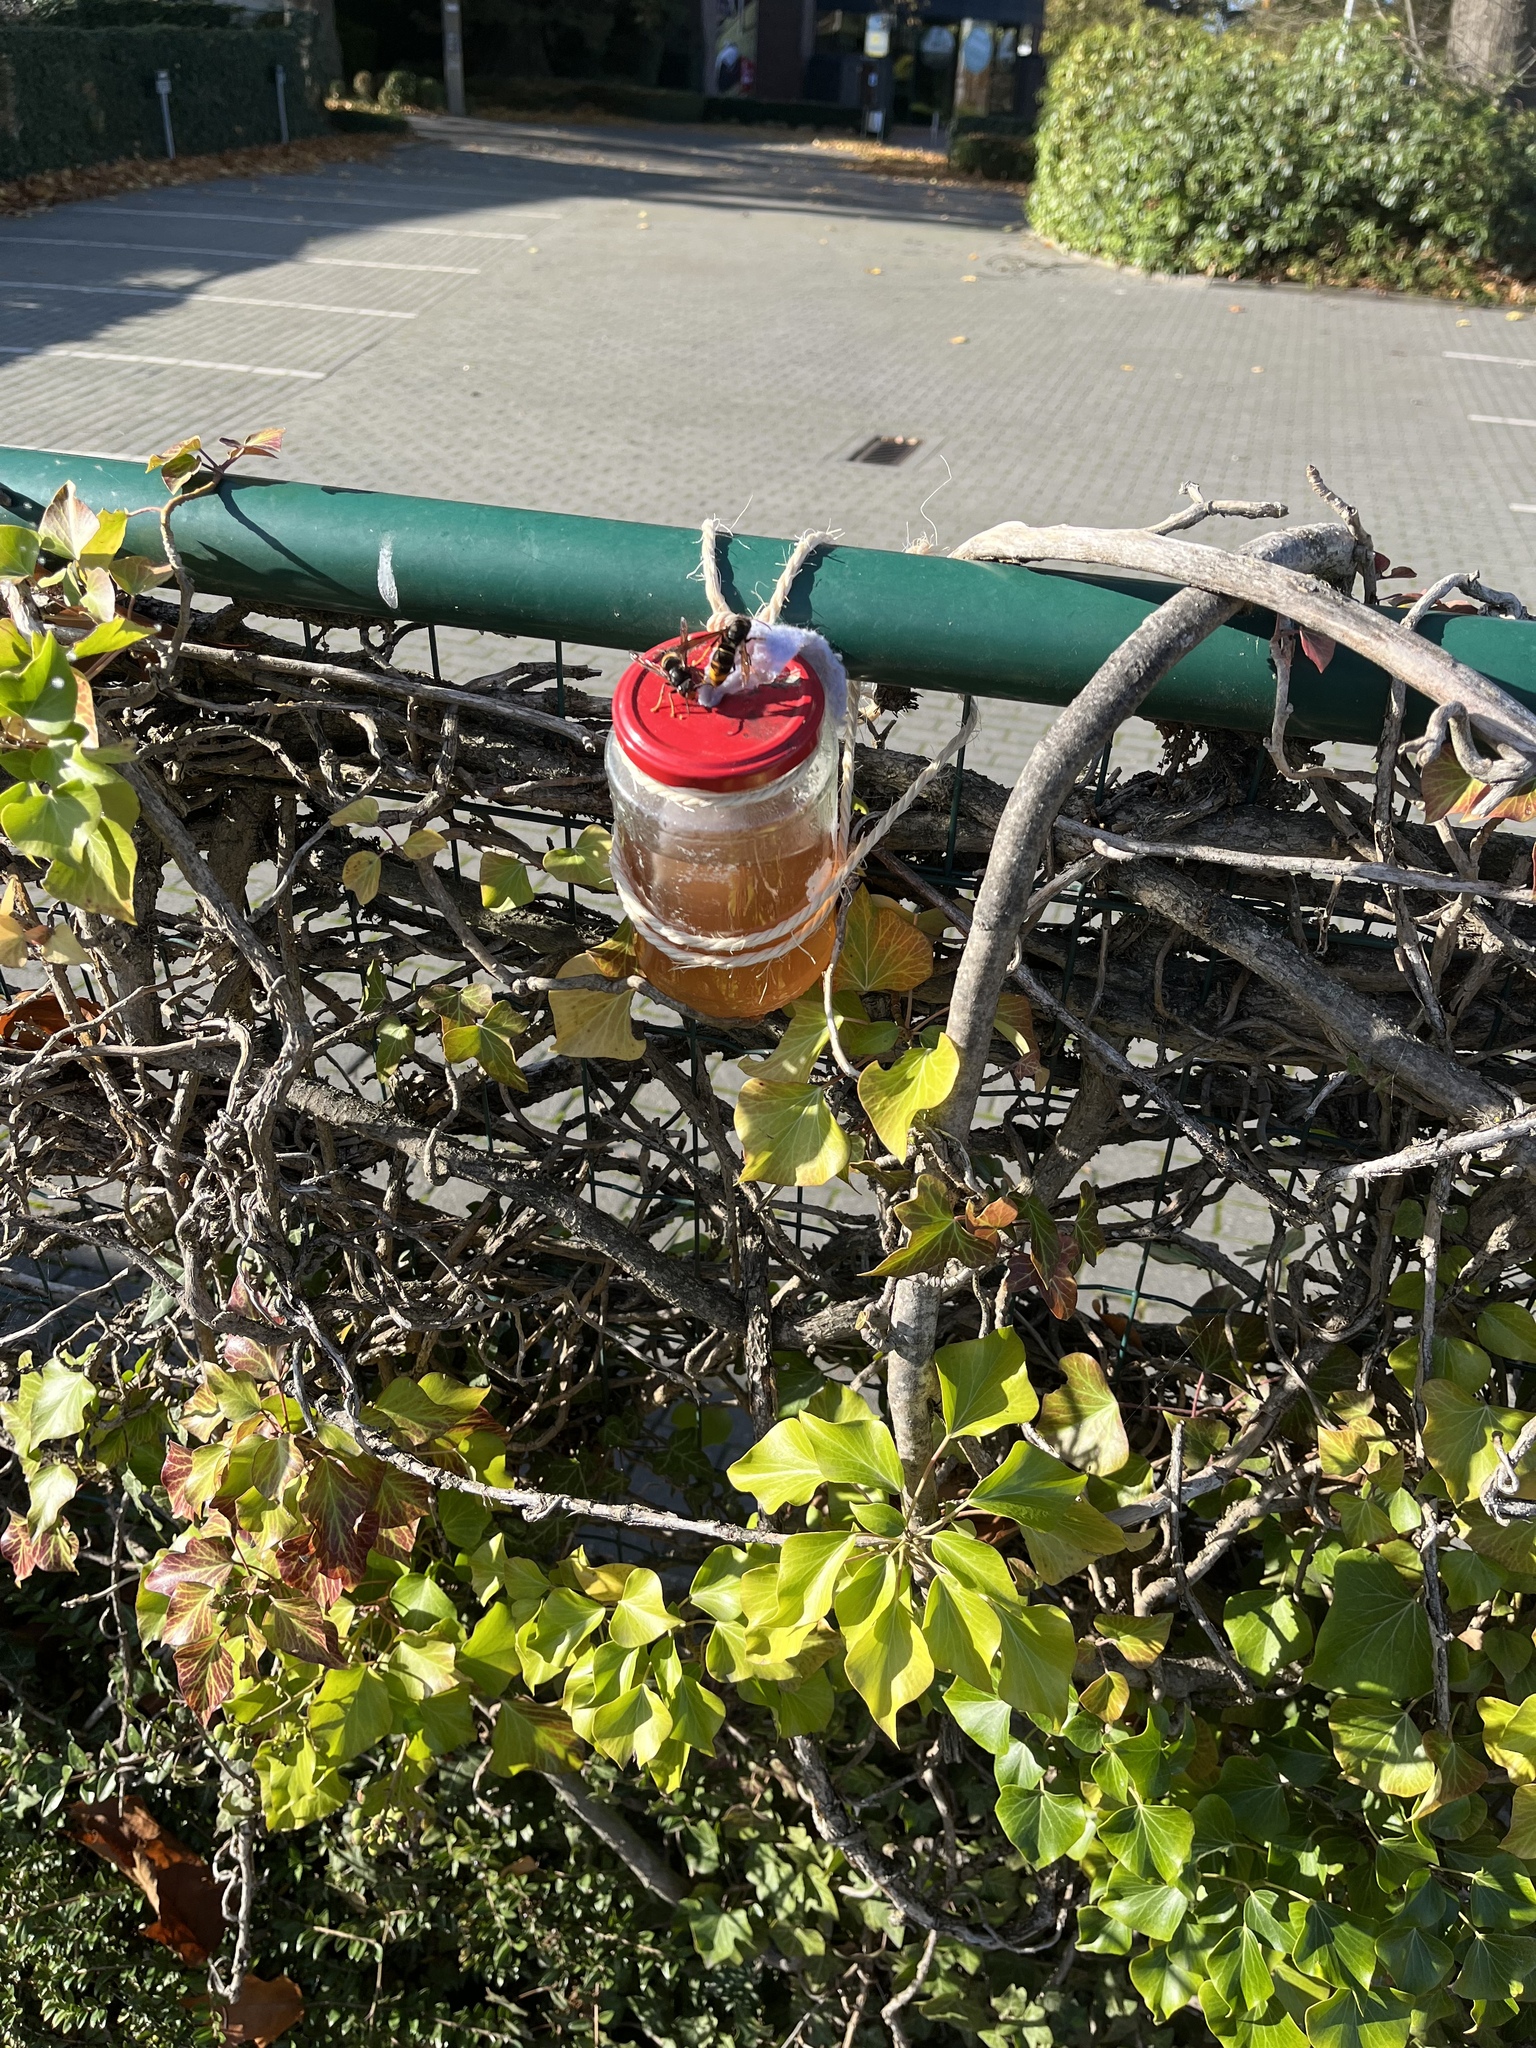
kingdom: Animalia
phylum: Arthropoda
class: Insecta
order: Hymenoptera
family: Vespidae
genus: Vespa
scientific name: Vespa velutina
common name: Asian hornet
